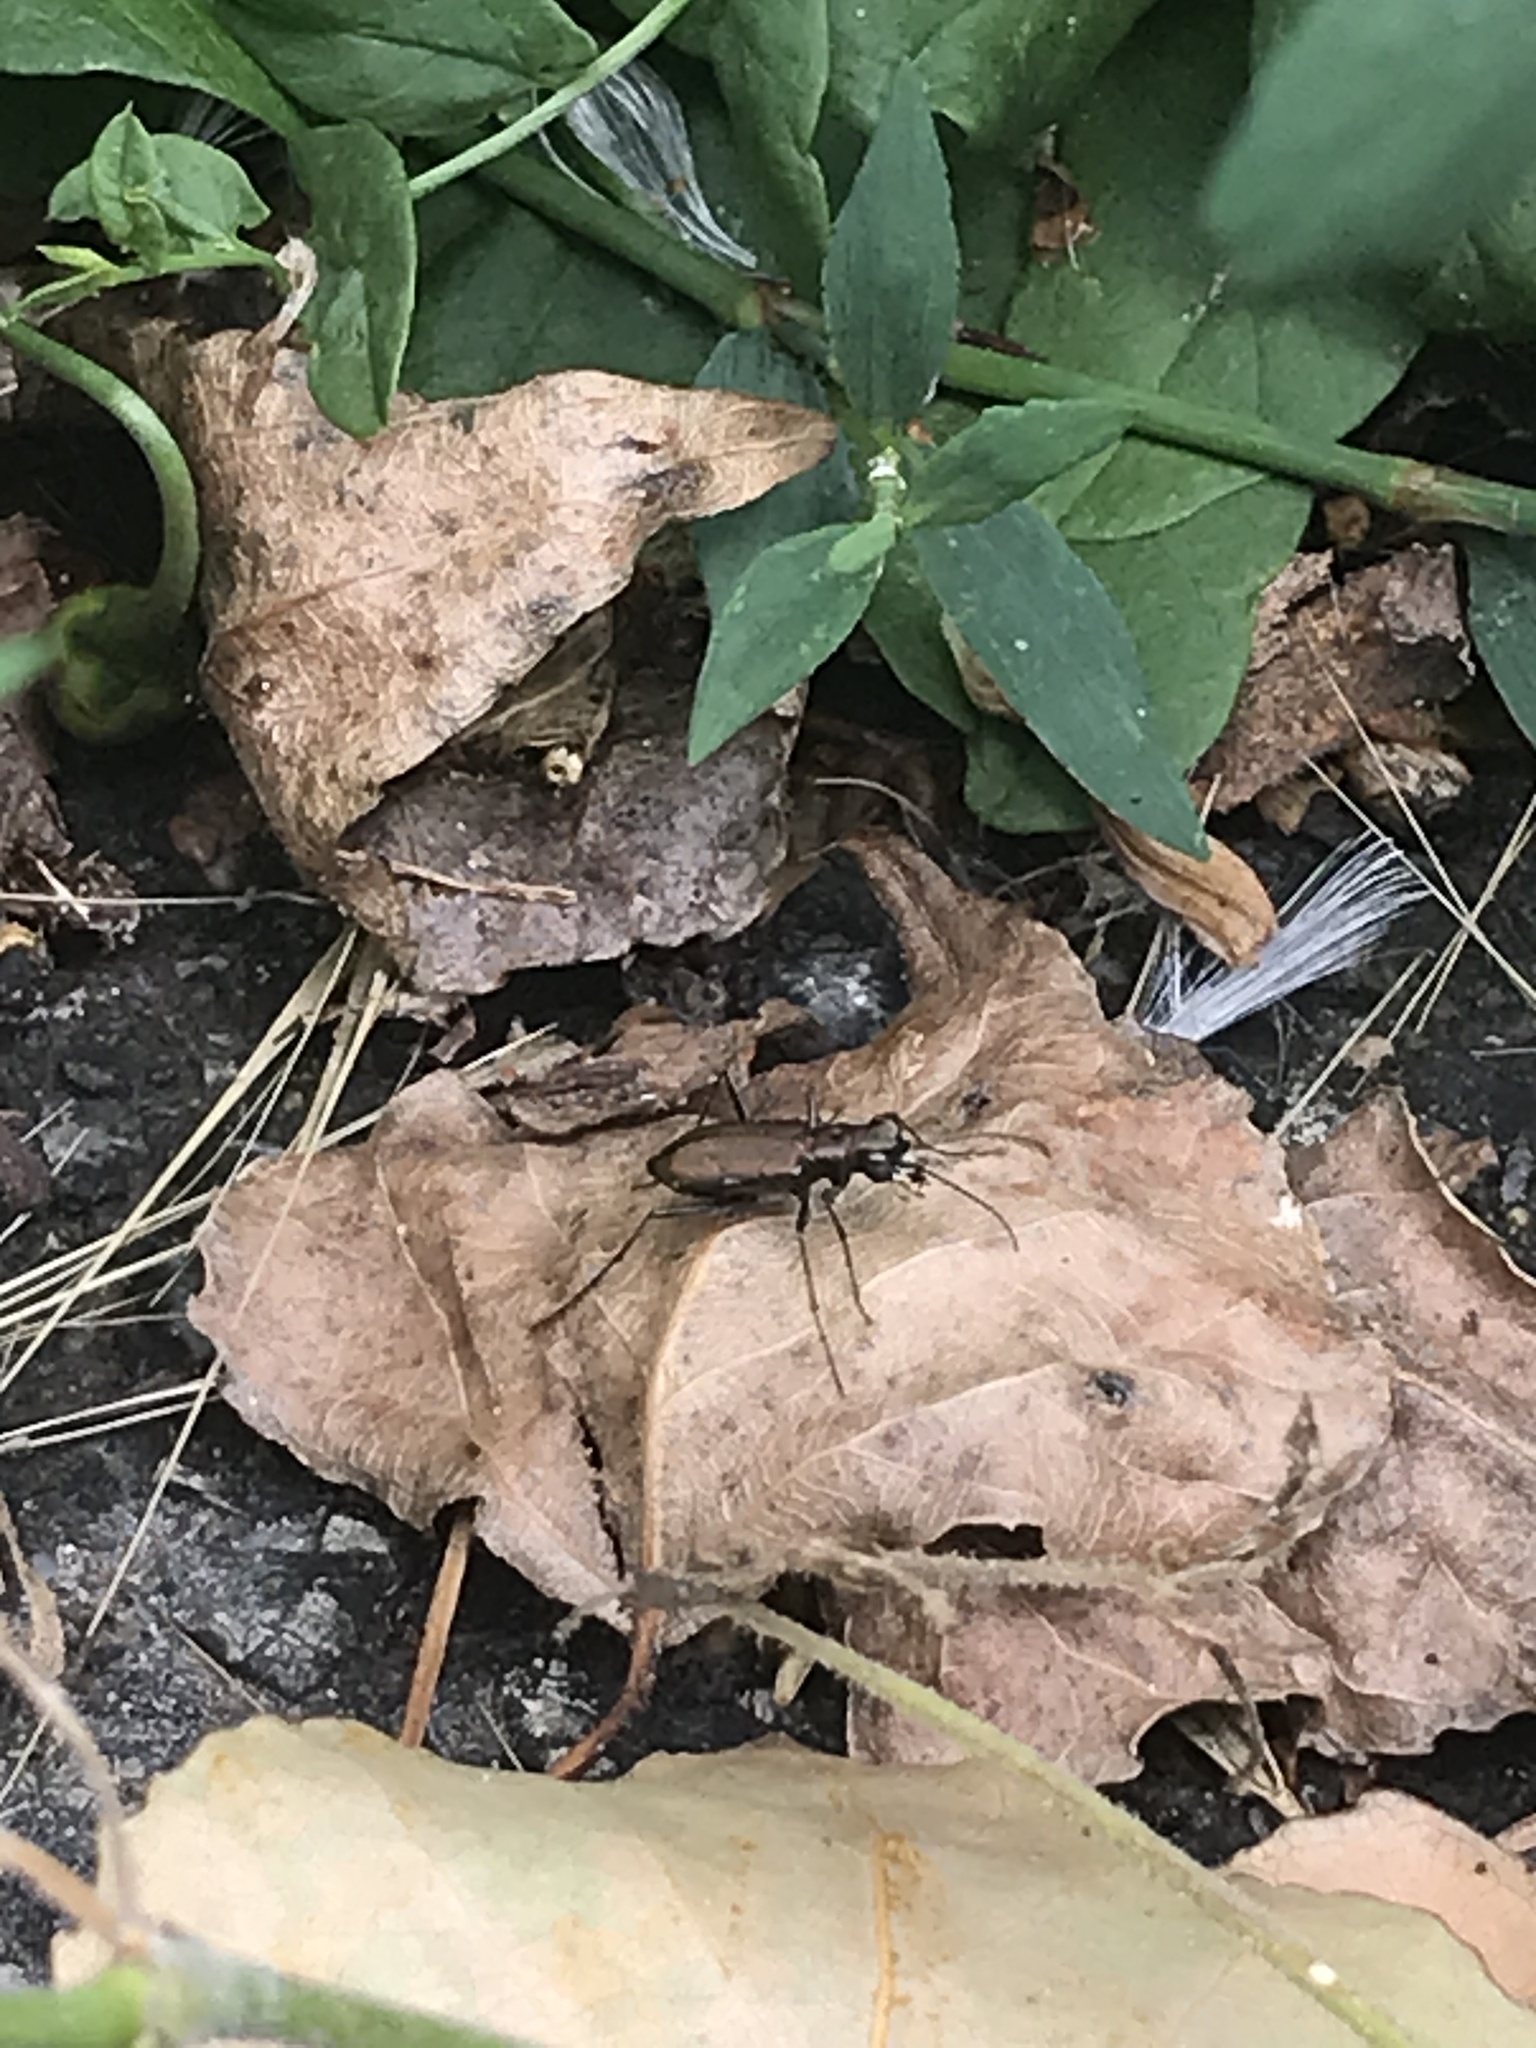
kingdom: Animalia
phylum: Arthropoda
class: Insecta
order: Coleoptera
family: Carabidae
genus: Cylindera
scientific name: Cylindera germanica
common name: Cliff tiger beetle
